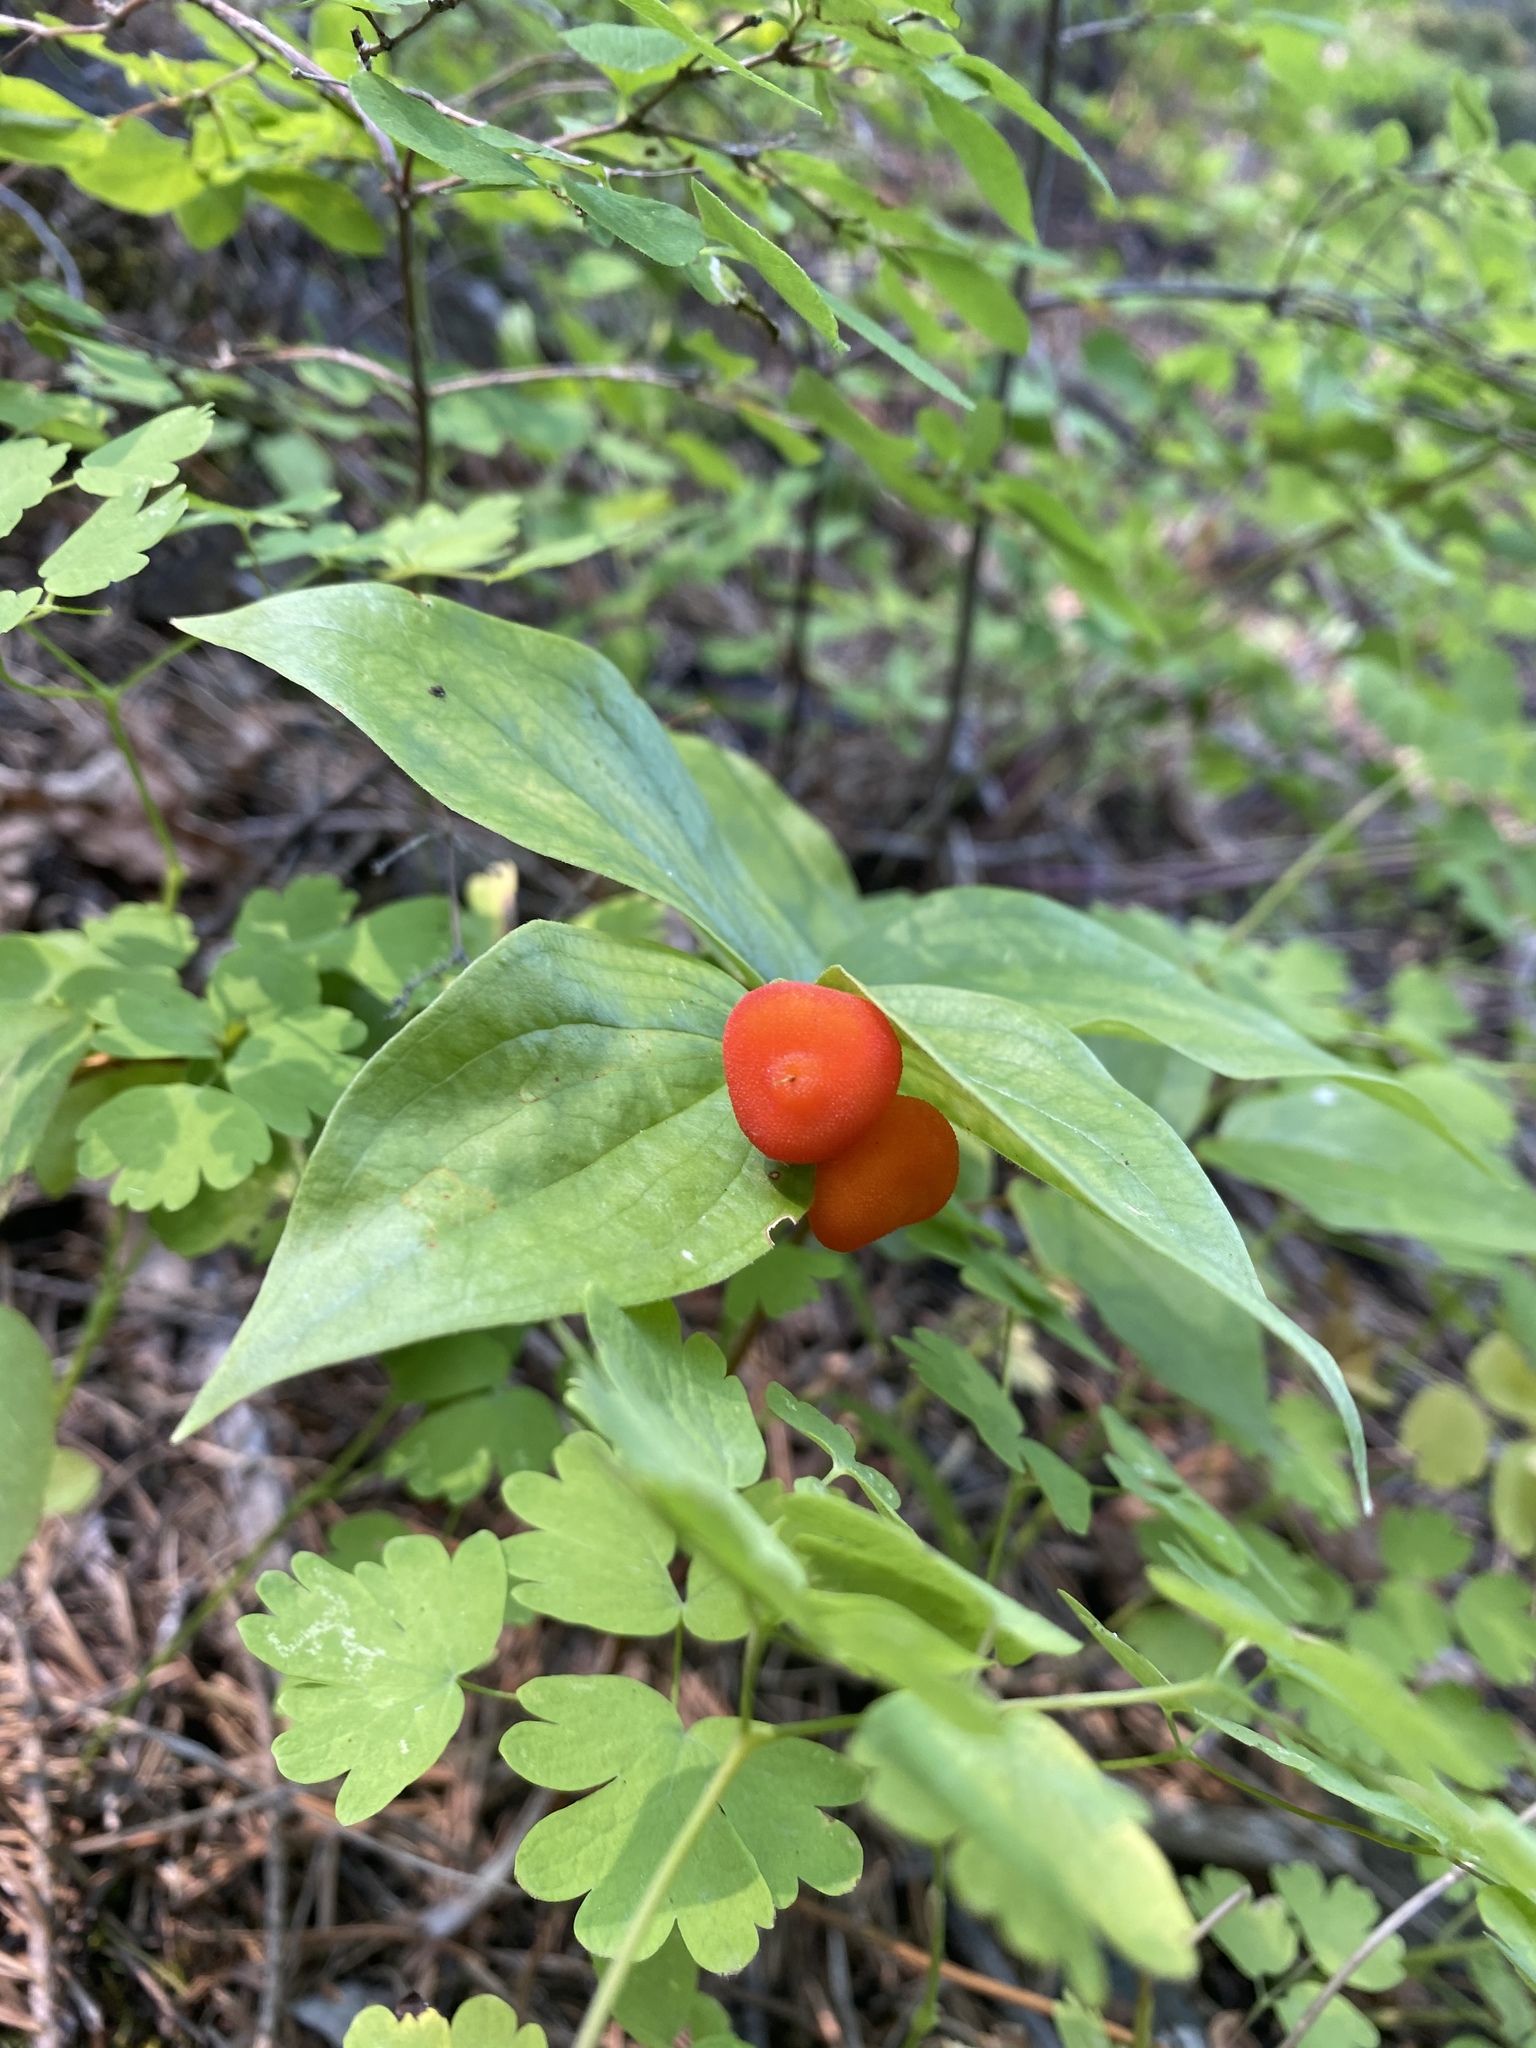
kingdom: Plantae
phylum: Tracheophyta
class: Liliopsida
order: Liliales
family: Liliaceae
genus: Prosartes
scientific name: Prosartes trachycarpa
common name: Rough-fruit fairy-bells
